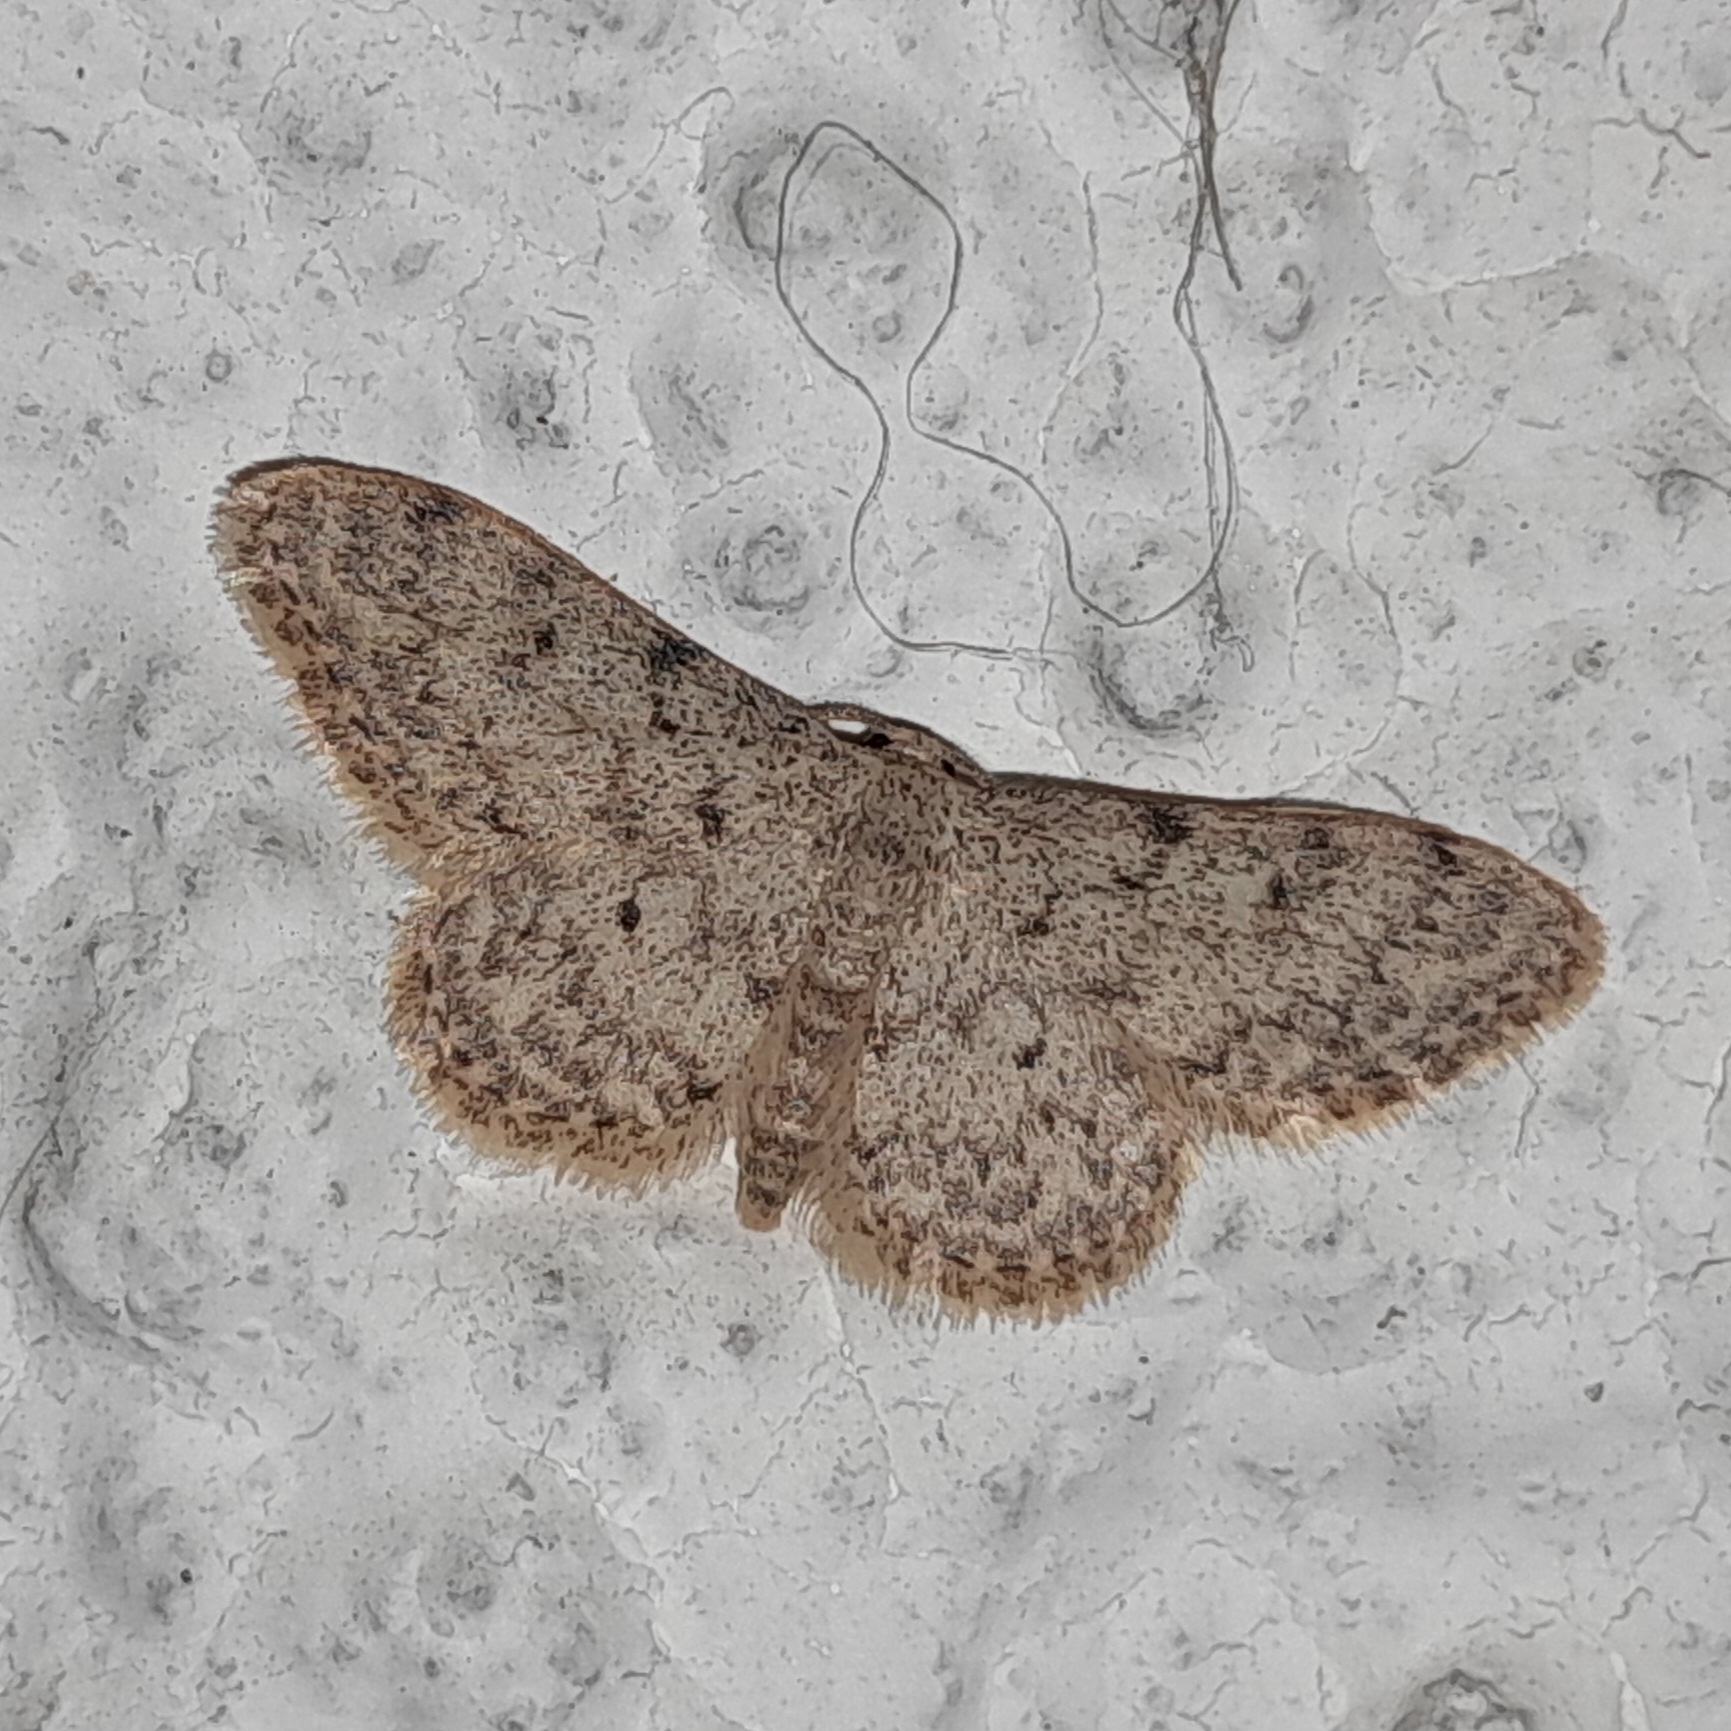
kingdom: Animalia
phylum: Arthropoda
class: Insecta
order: Lepidoptera
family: Geometridae
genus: Idaea
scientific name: Idaea cervantaria
